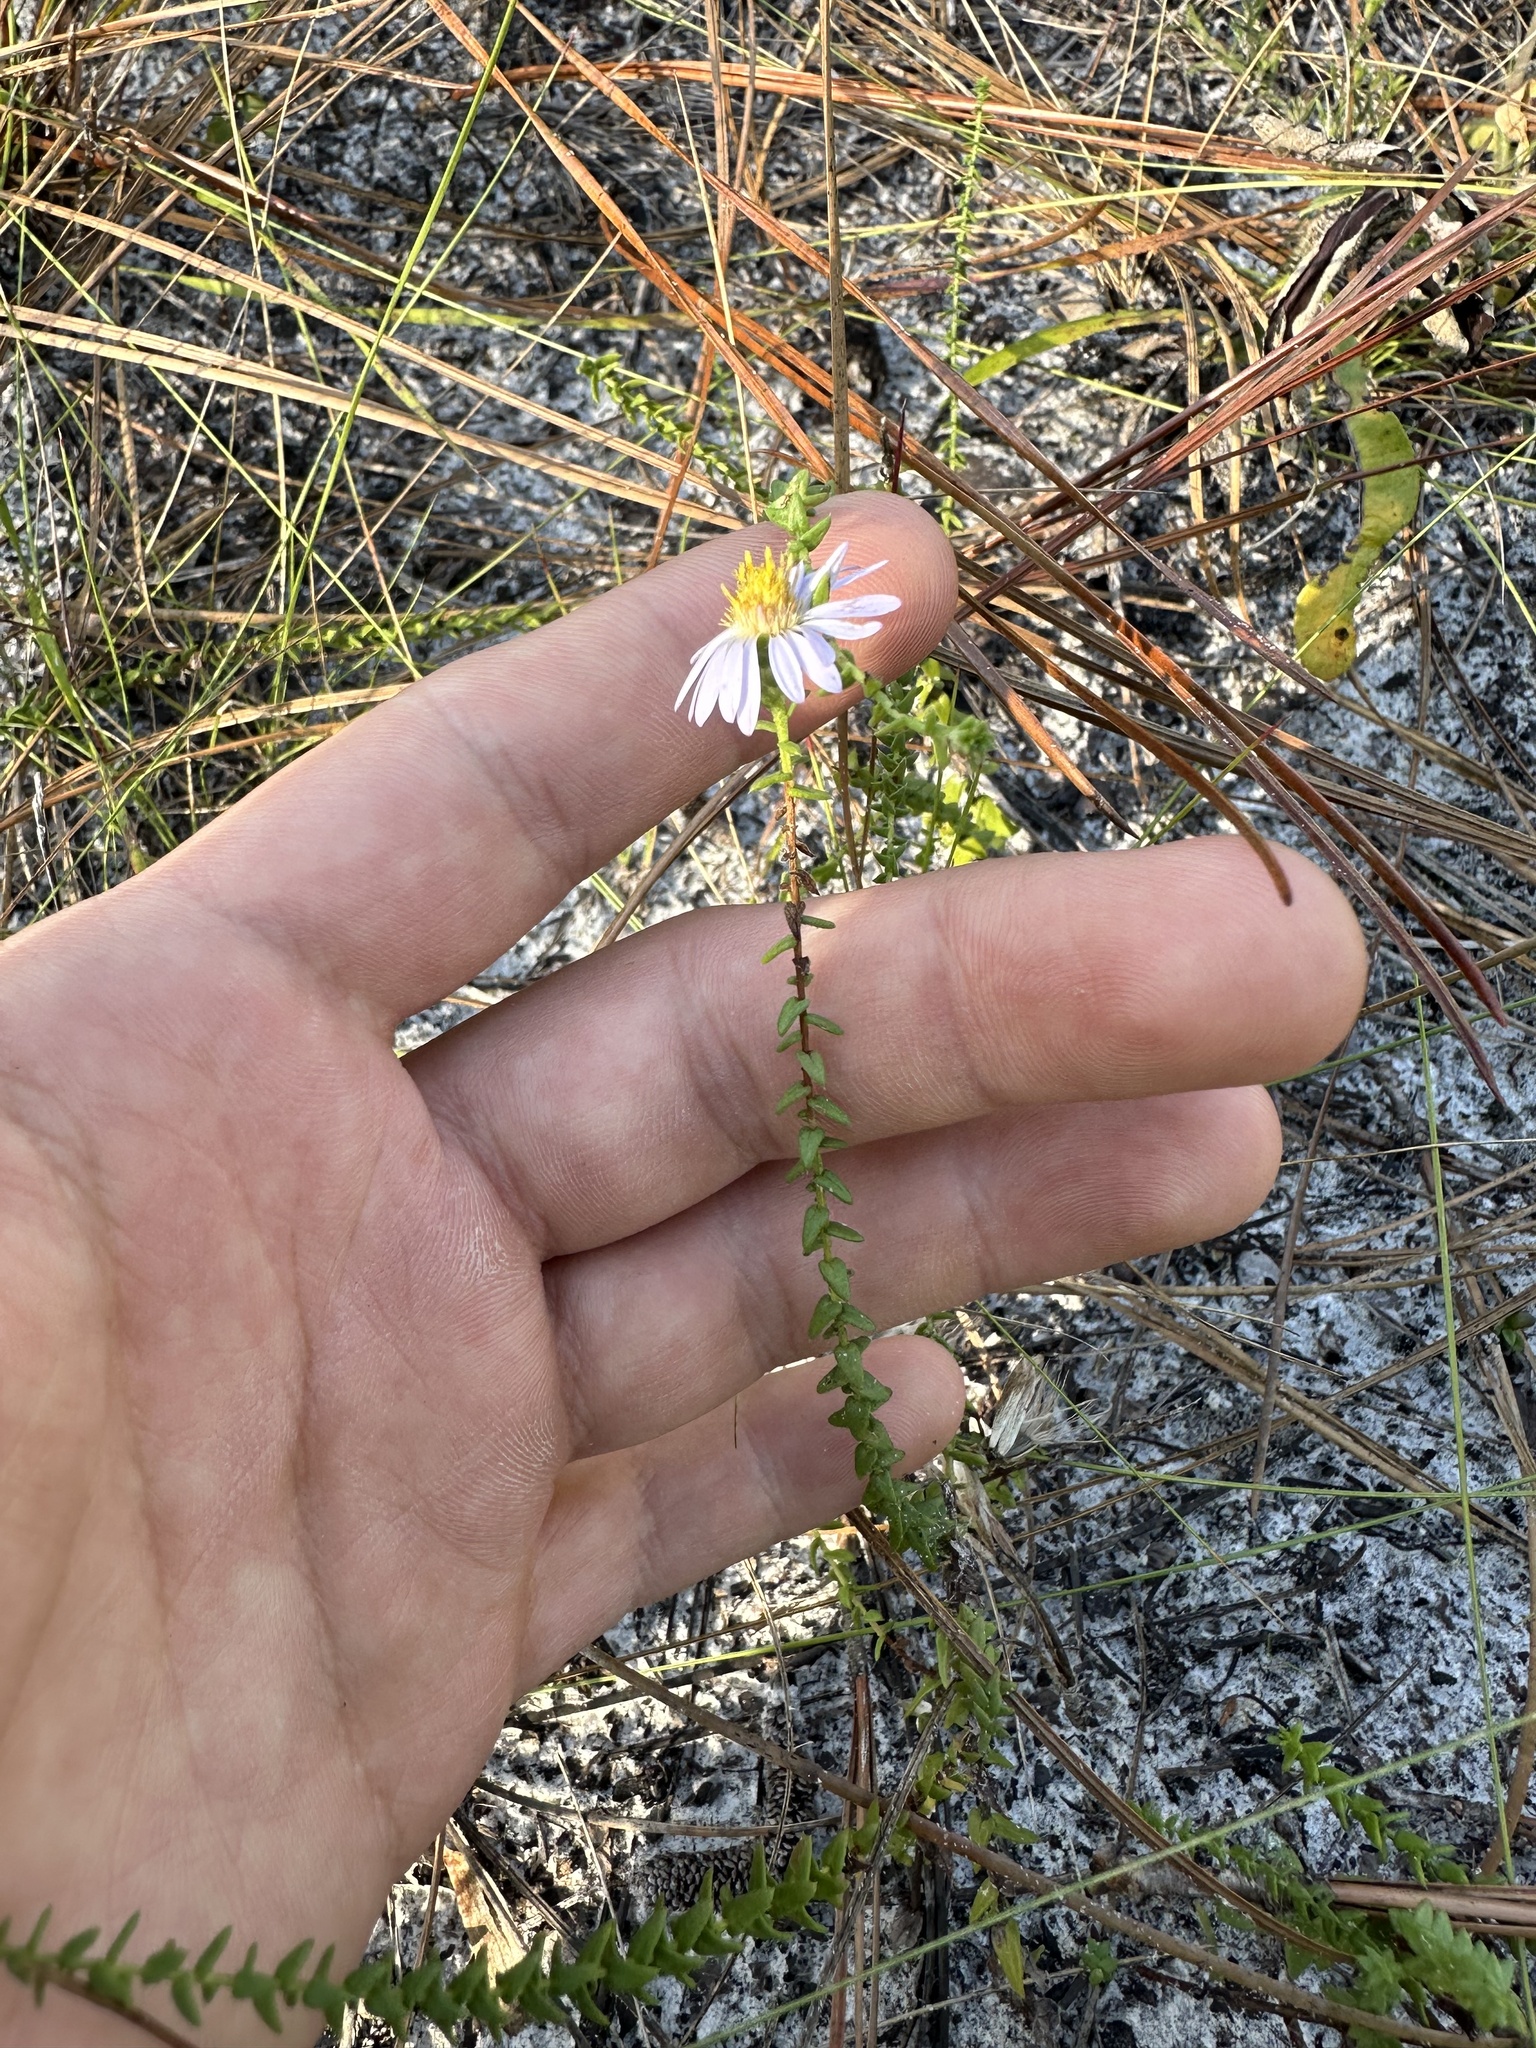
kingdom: Plantae
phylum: Tracheophyta
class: Magnoliopsida
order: Asterales
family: Asteraceae
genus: Symphyotrichum
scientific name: Symphyotrichum walteri
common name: Walter's aster
